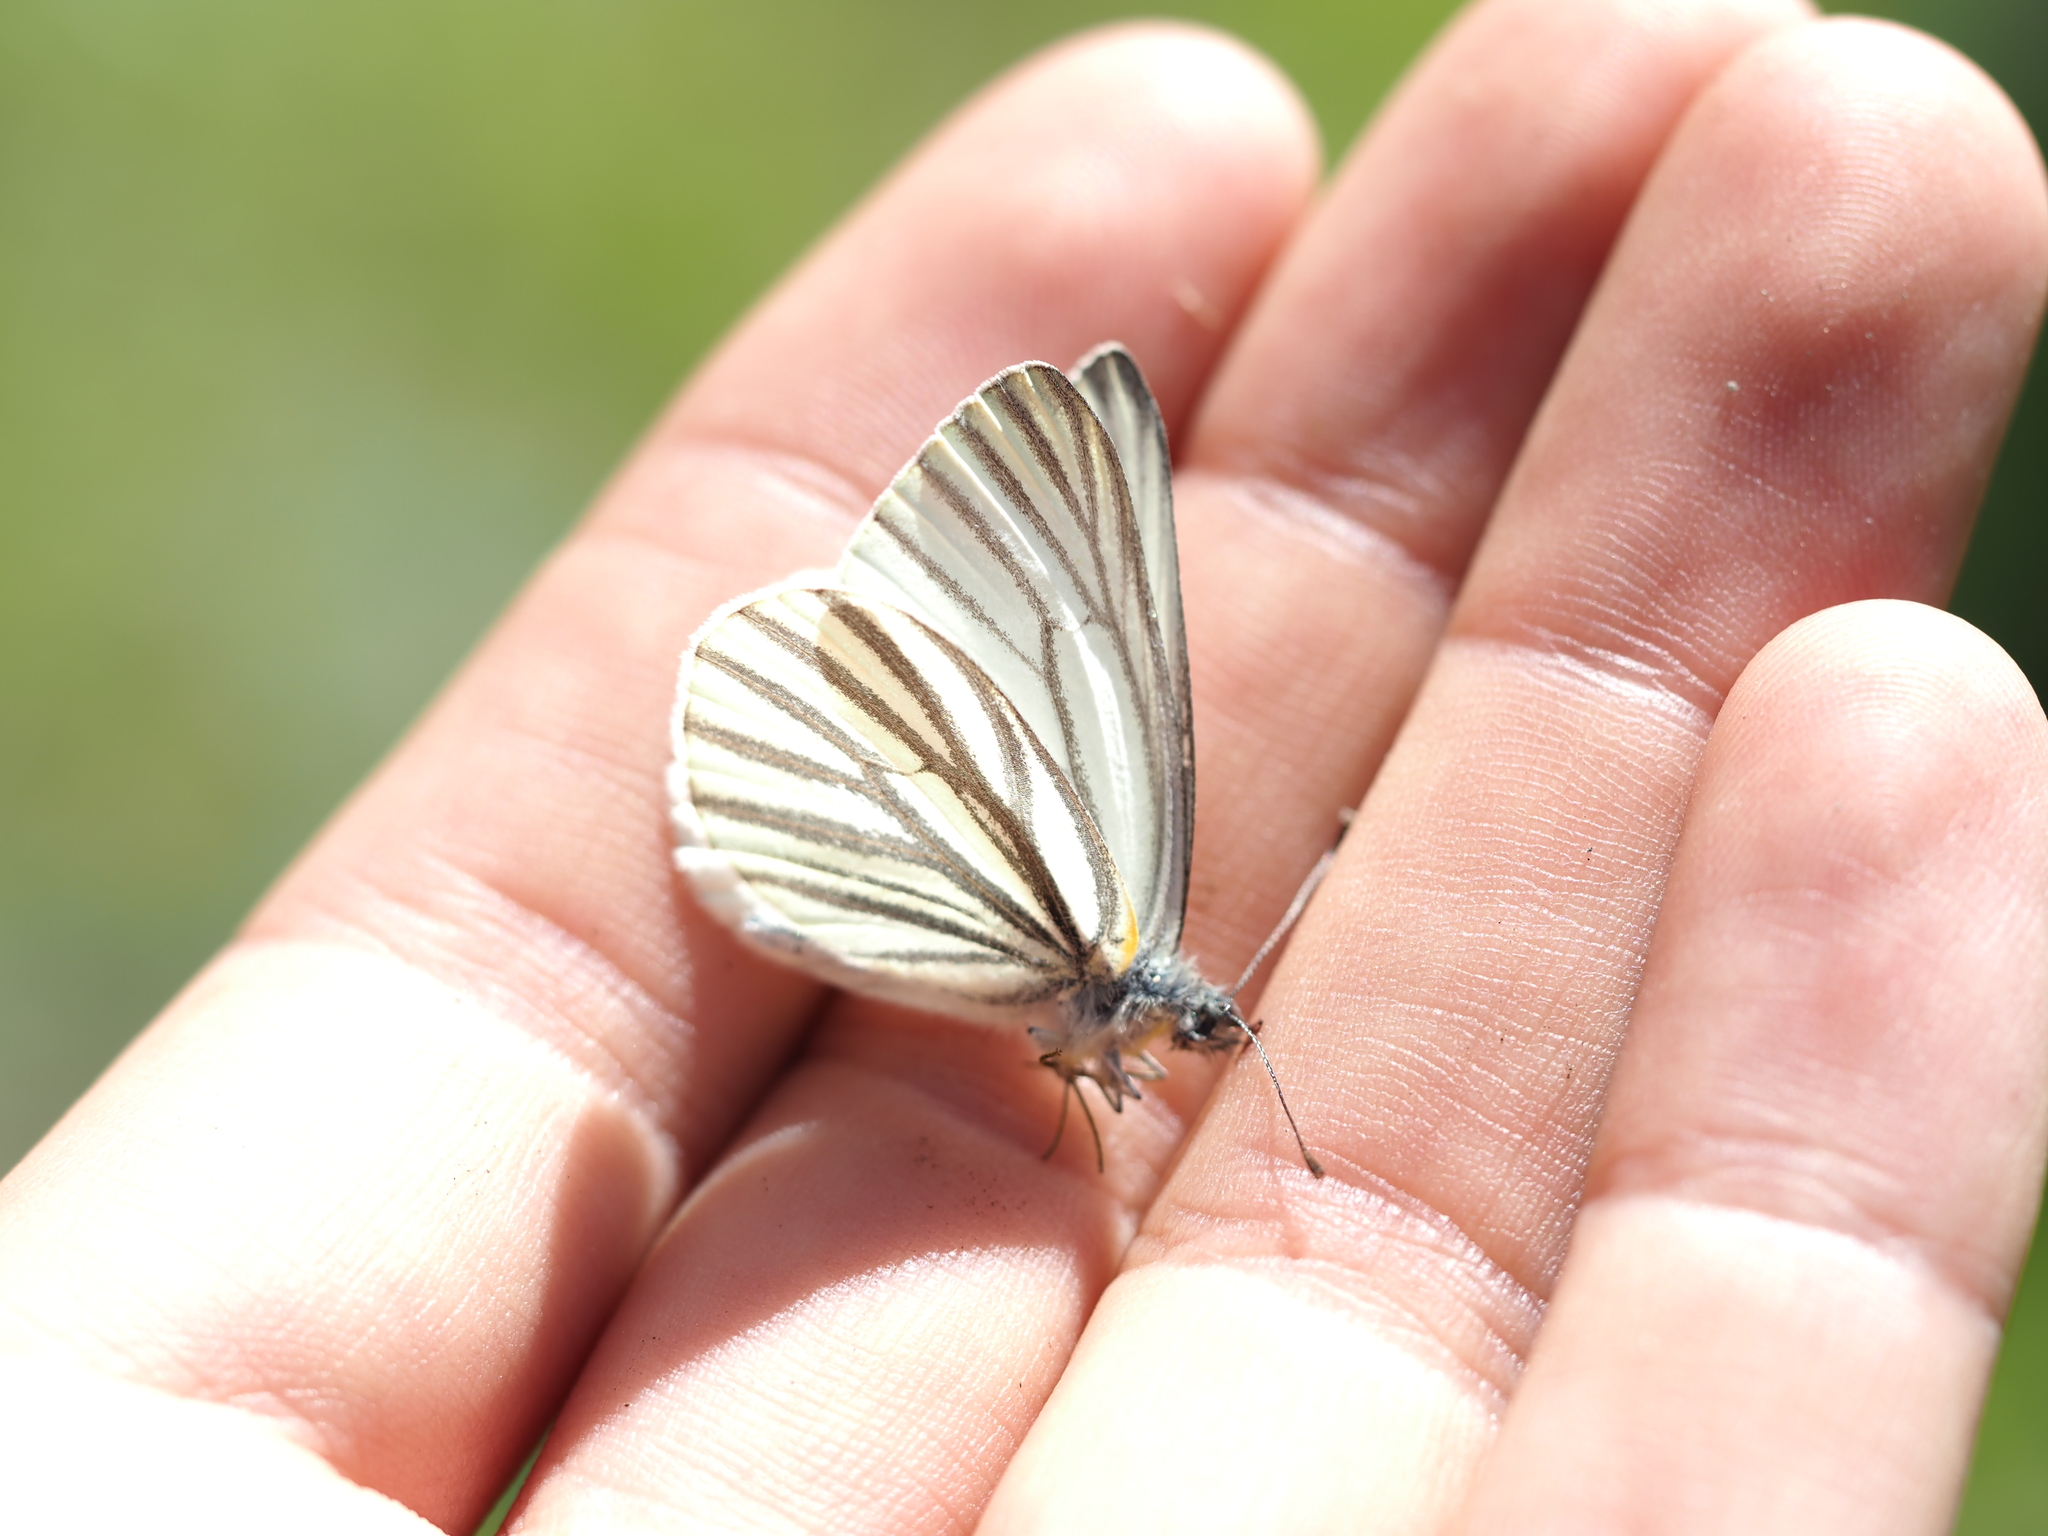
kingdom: Animalia
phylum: Arthropoda
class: Insecta
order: Lepidoptera
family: Pieridae
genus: Pieris
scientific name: Pieris marginalis
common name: Margined white
